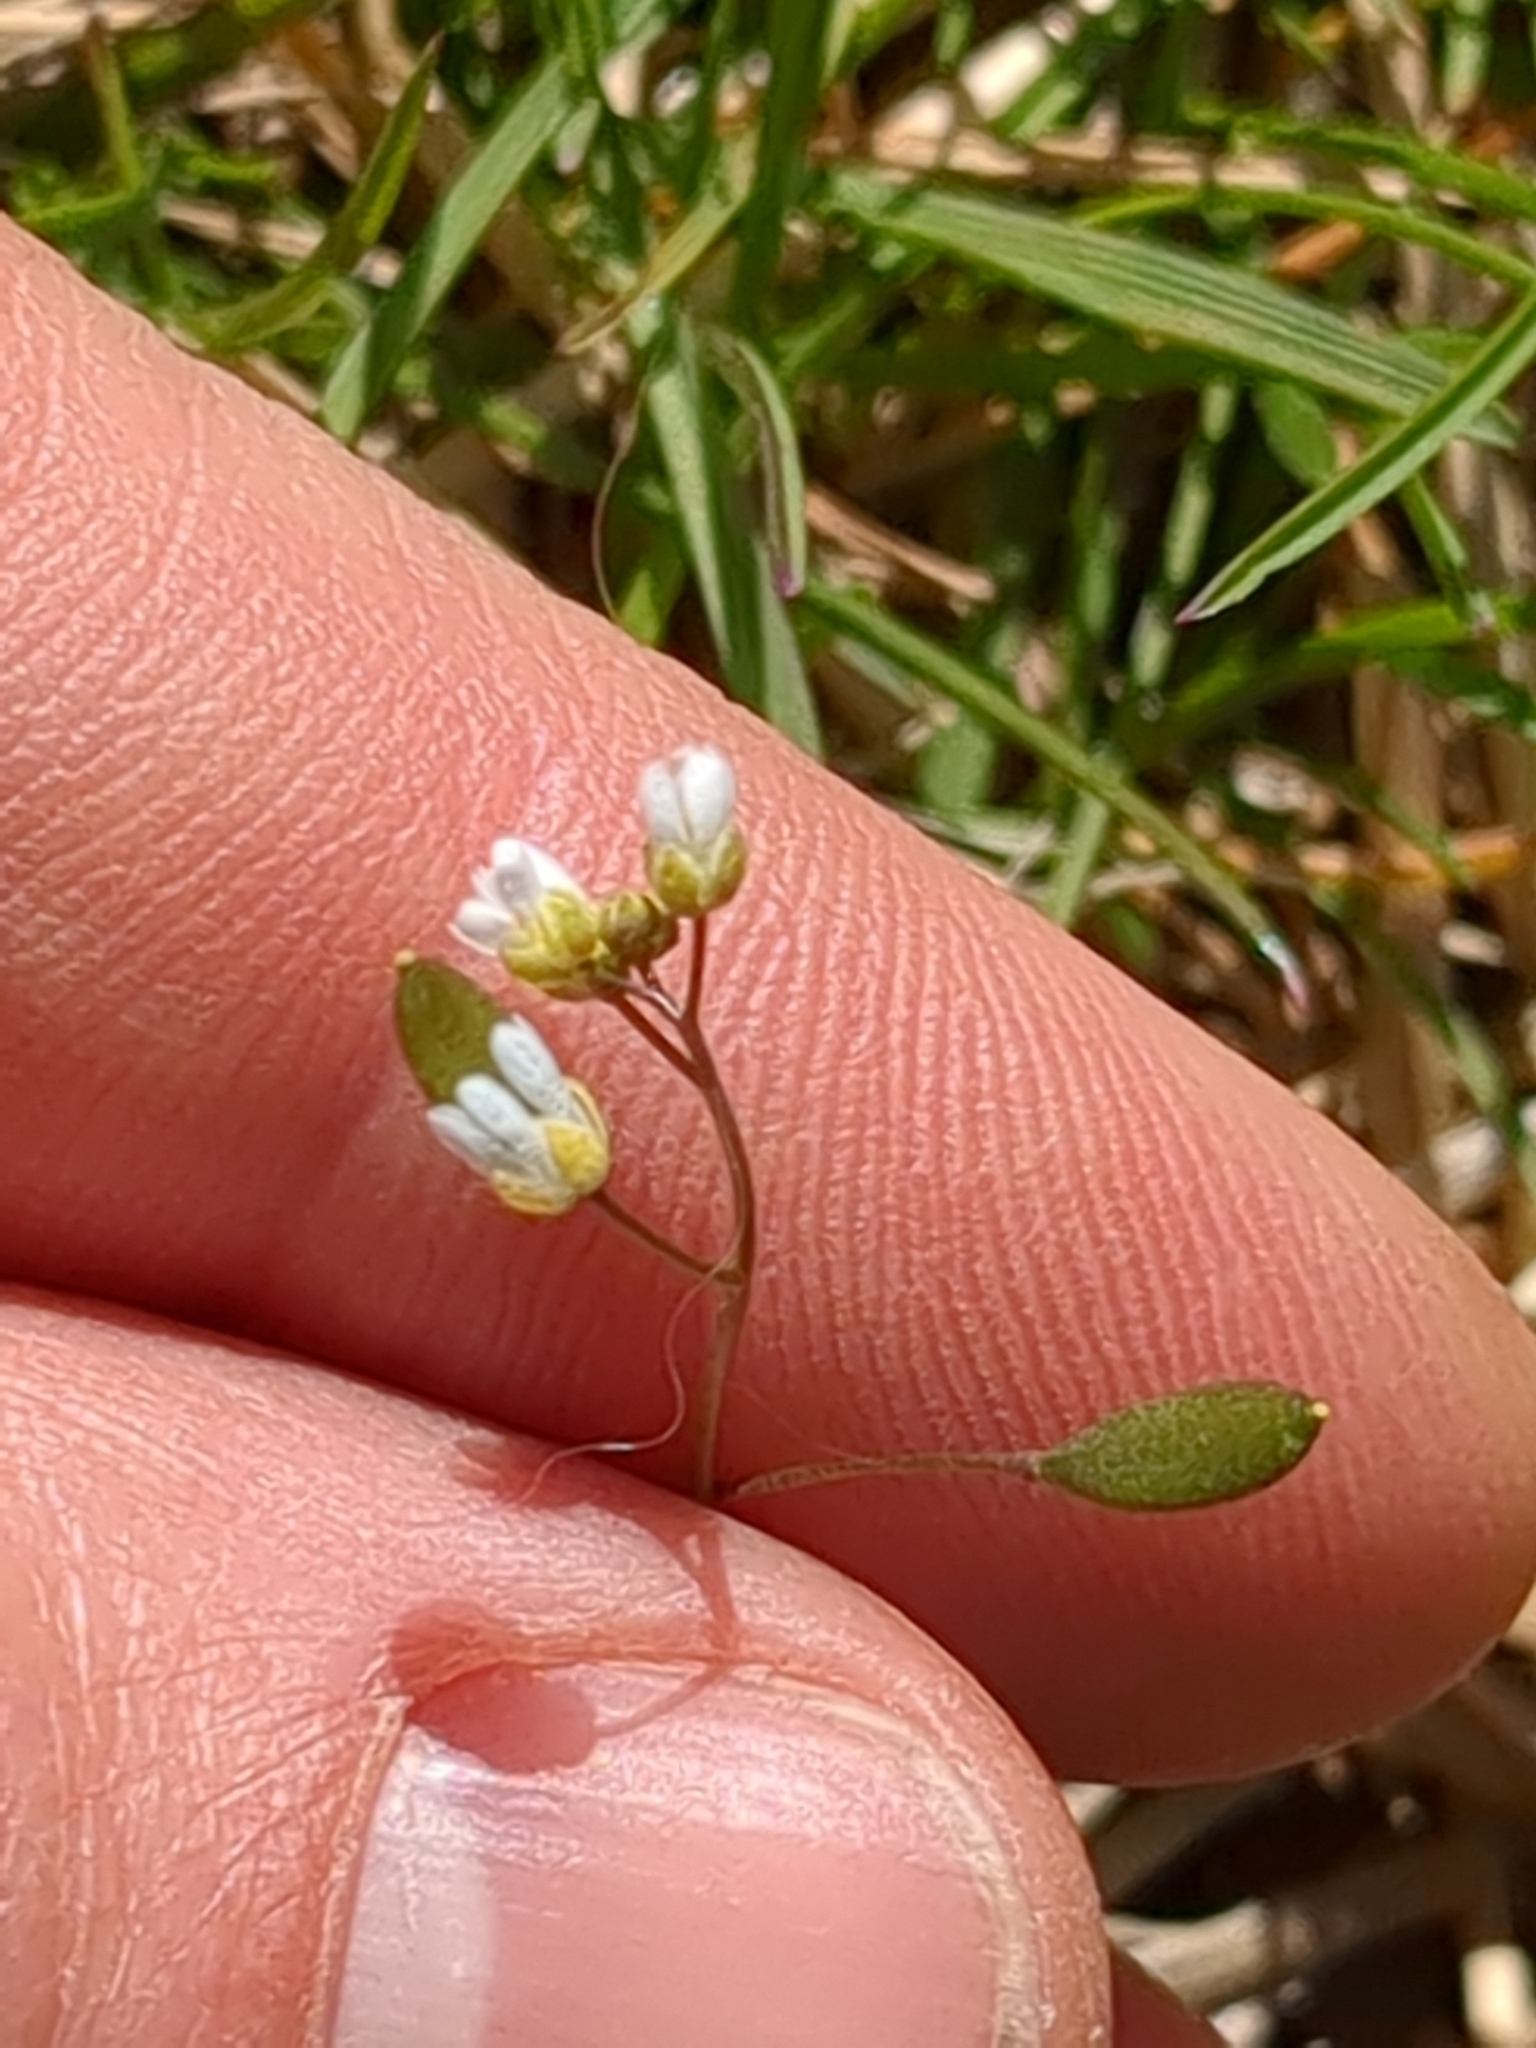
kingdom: Plantae
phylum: Tracheophyta
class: Magnoliopsida
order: Brassicales
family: Brassicaceae
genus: Draba
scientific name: Draba verna
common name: Spring draba
